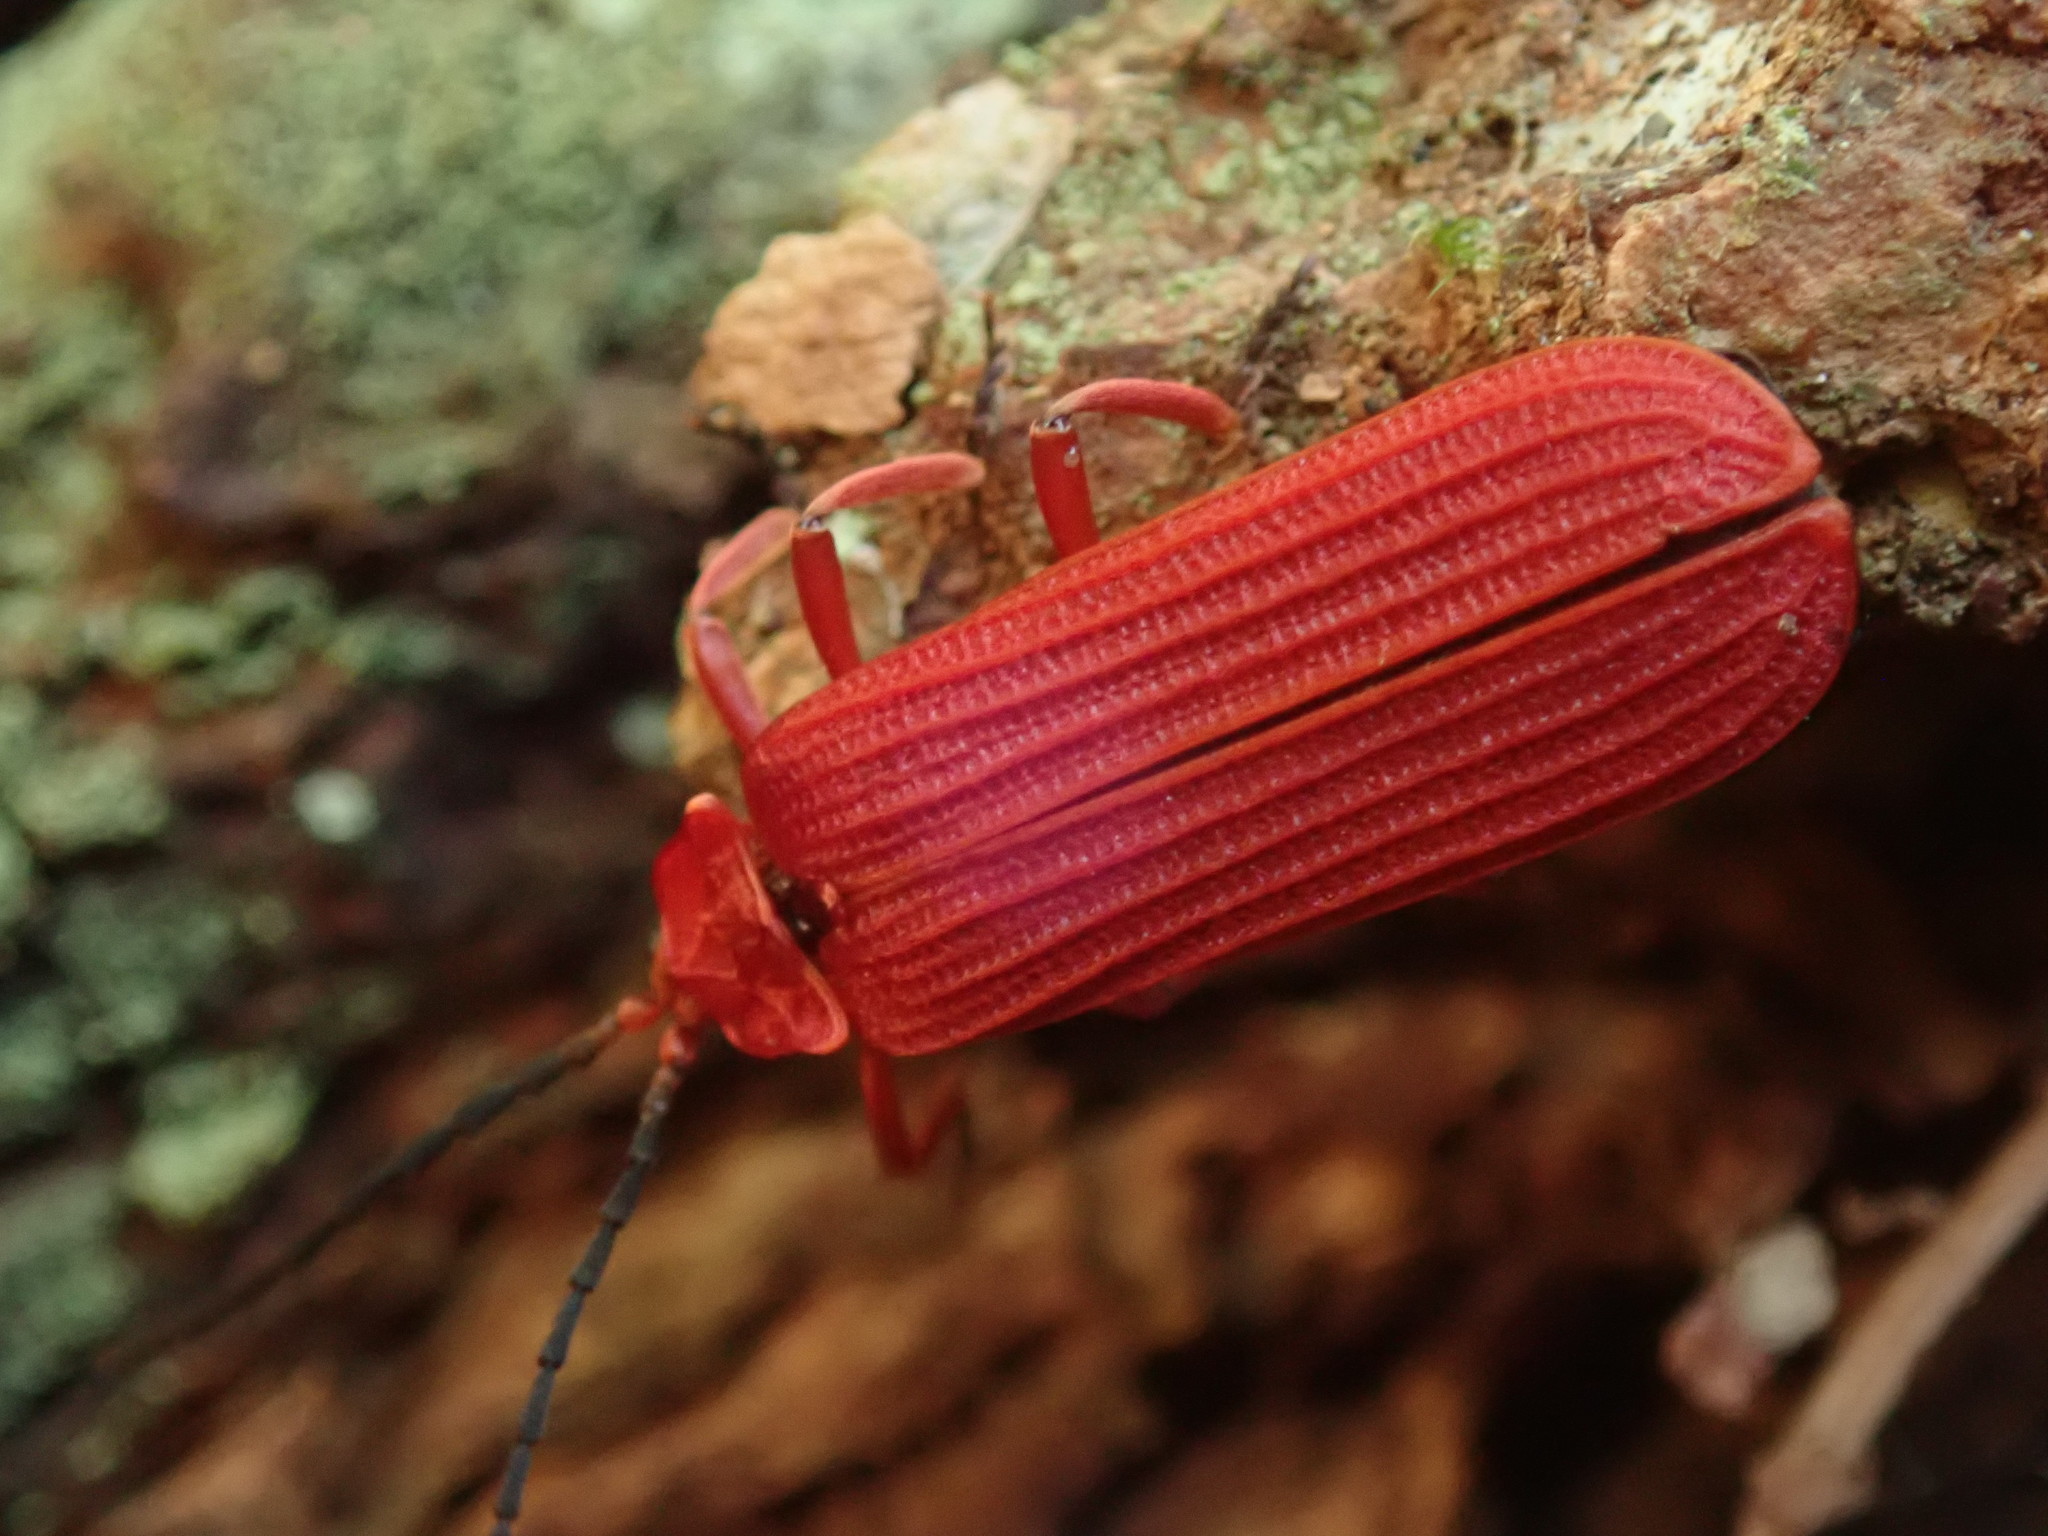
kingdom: Animalia
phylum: Arthropoda
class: Insecta
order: Coleoptera
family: Lycidae
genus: Punicealis
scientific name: Punicealis hamata
